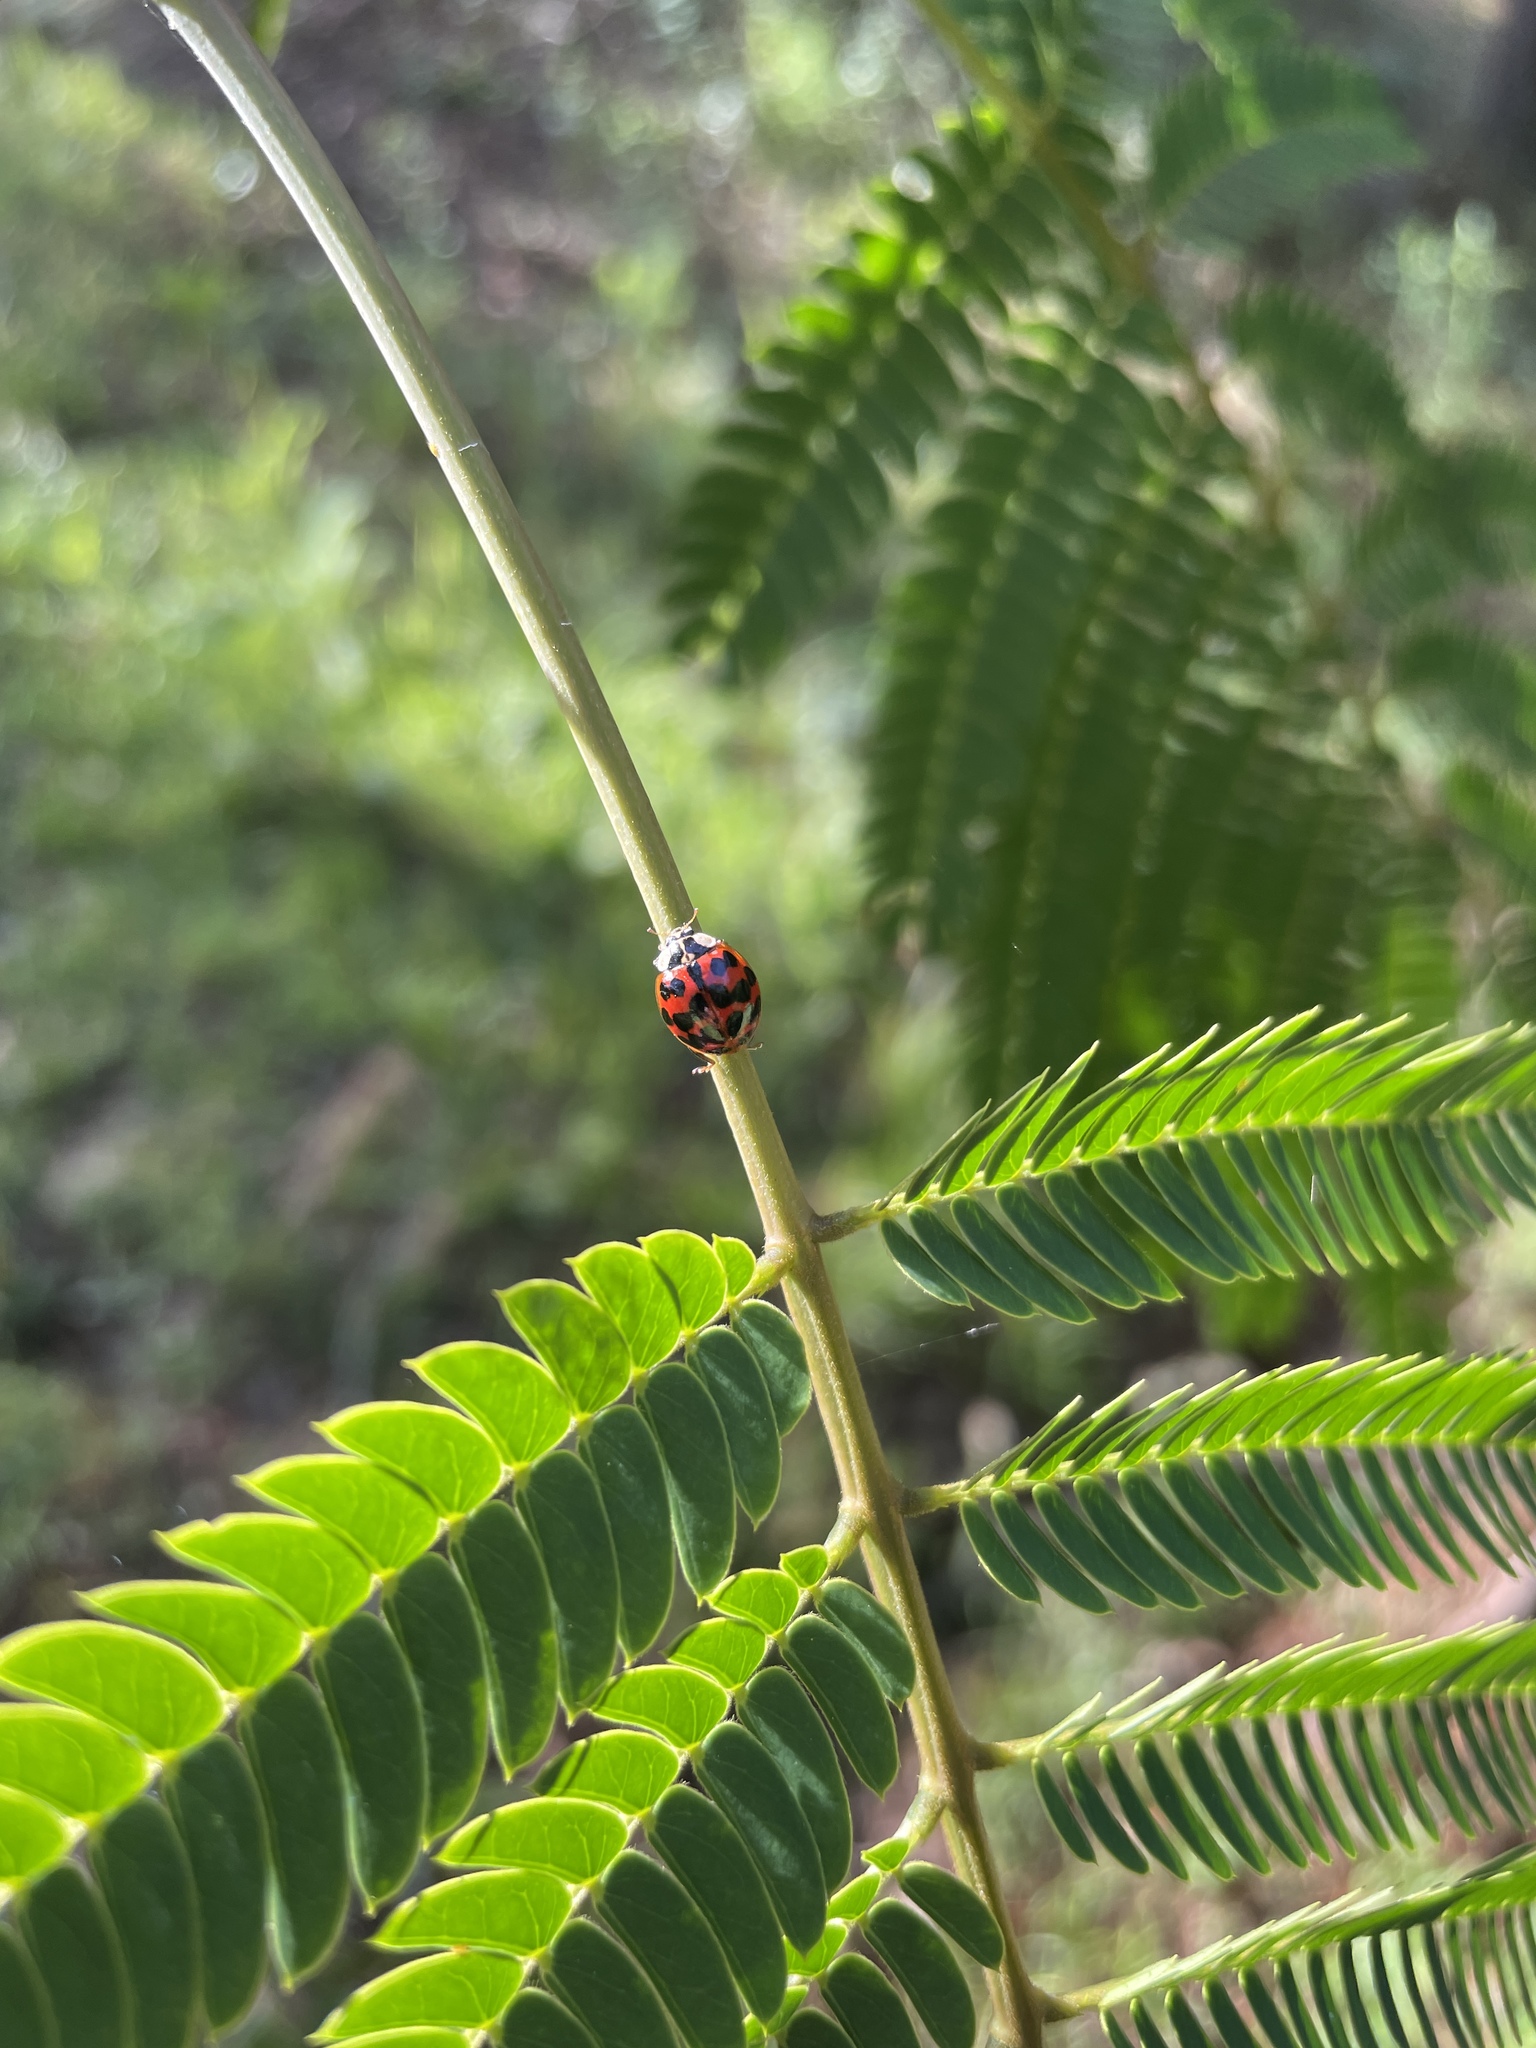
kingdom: Animalia
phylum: Arthropoda
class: Insecta
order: Coleoptera
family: Coccinellidae
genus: Harmonia
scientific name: Harmonia axyridis
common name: Harlequin ladybird
